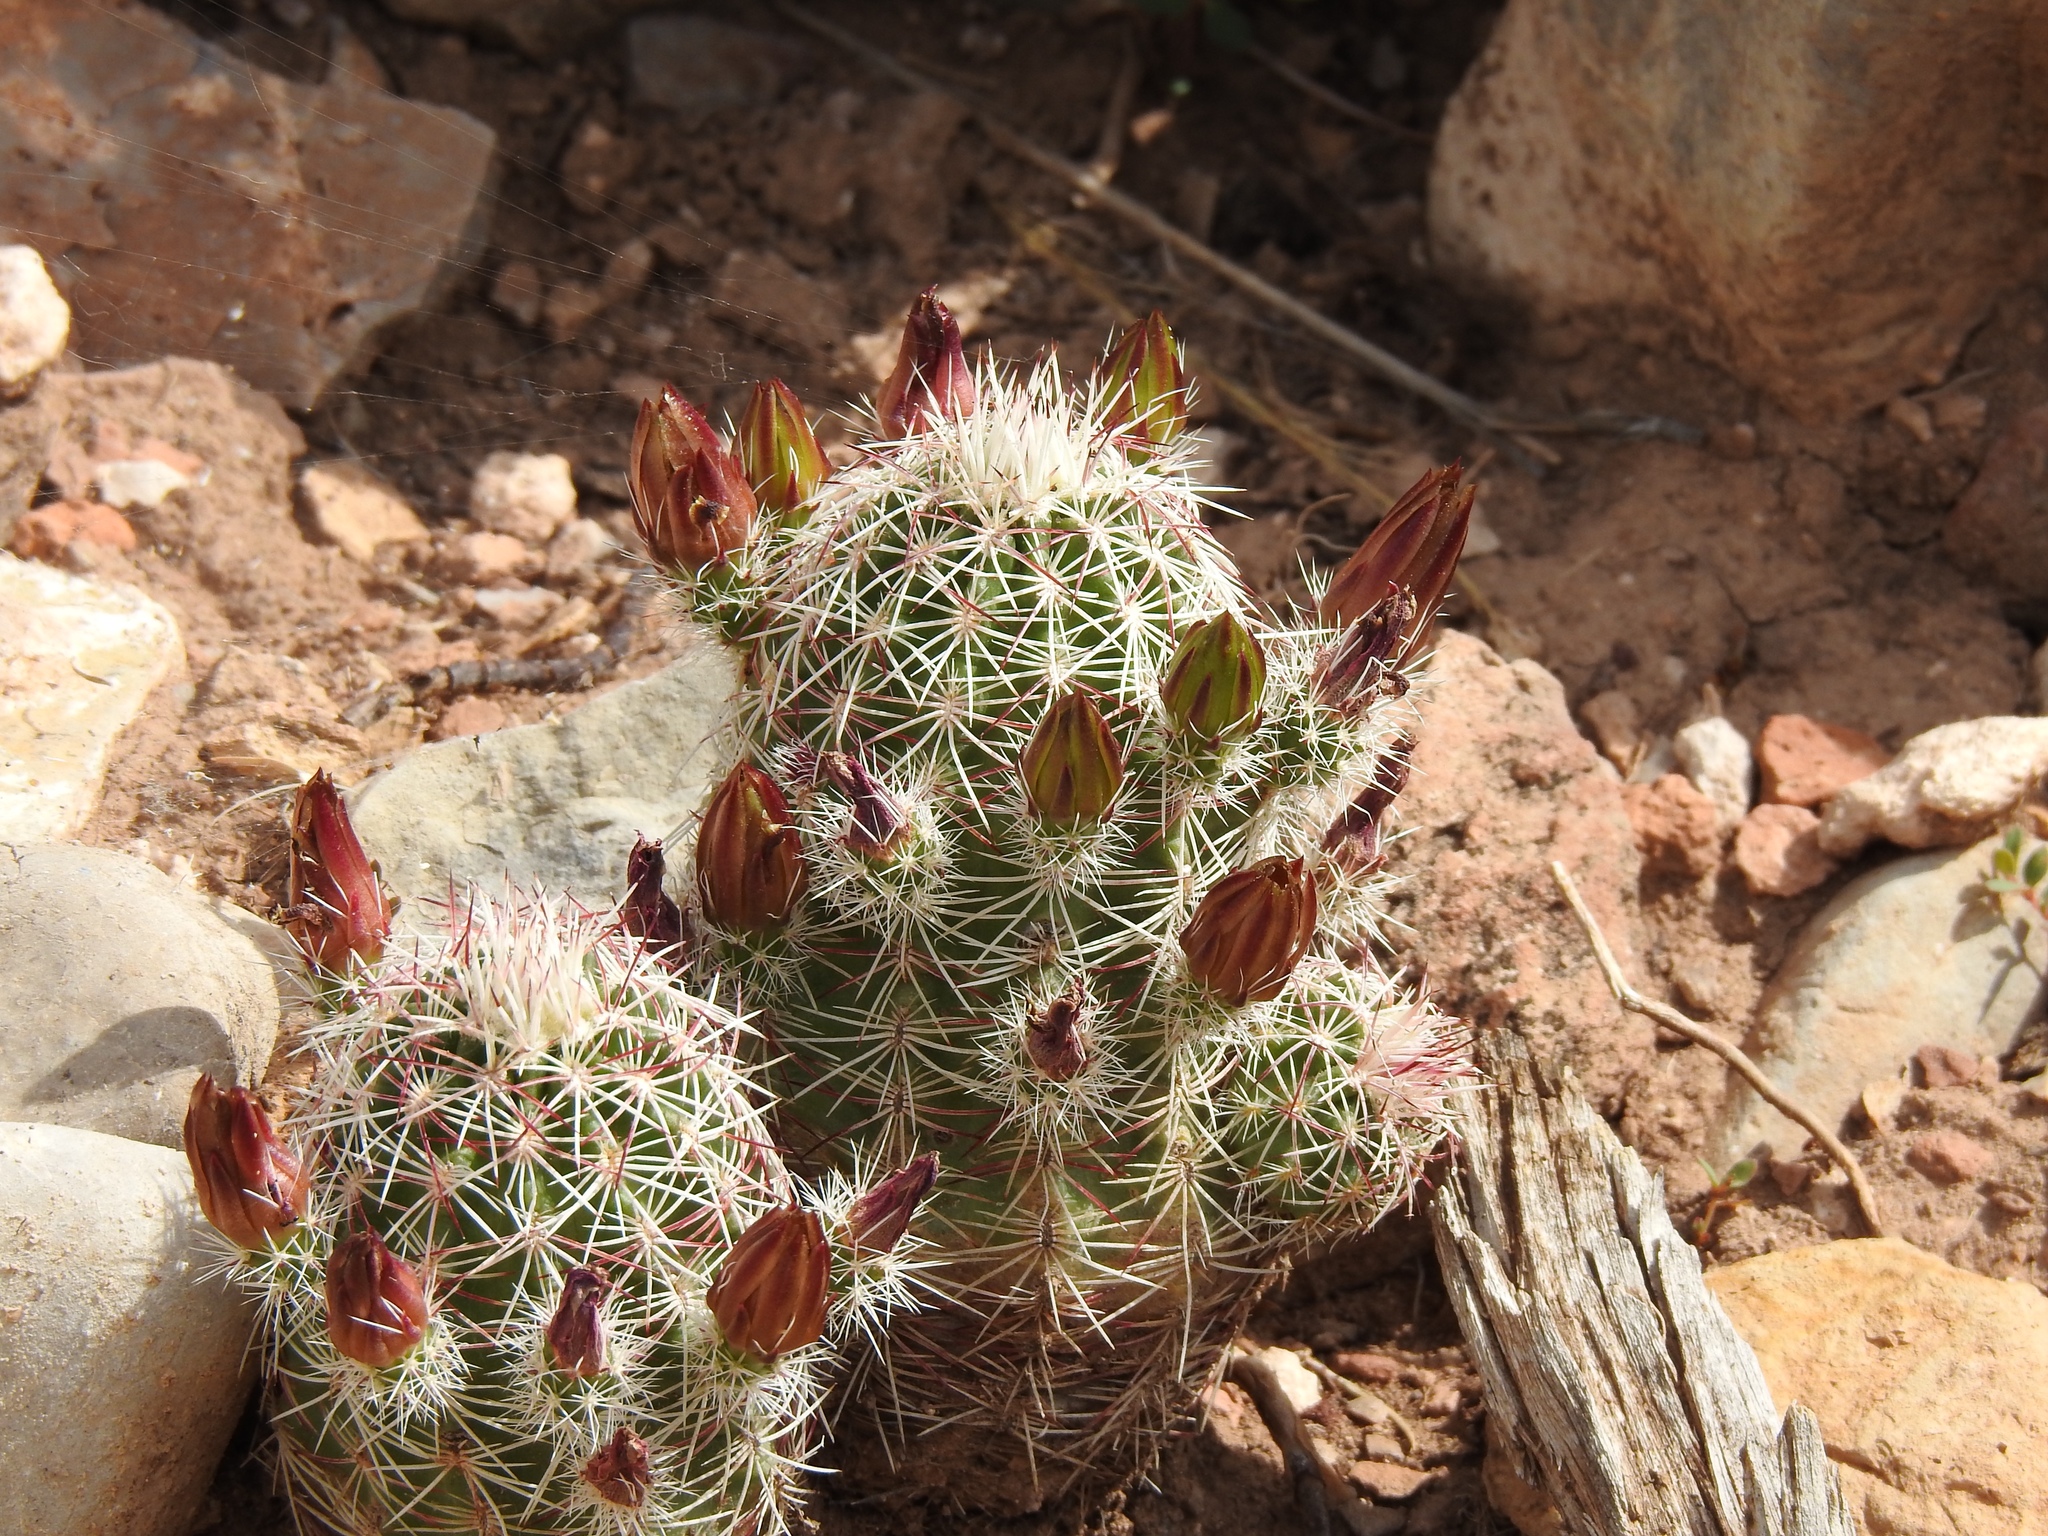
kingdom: Plantae
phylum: Tracheophyta
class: Magnoliopsida
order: Caryophyllales
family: Cactaceae
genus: Echinocereus
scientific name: Echinocereus viridiflorus
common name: Nylon hedgehog cactus
